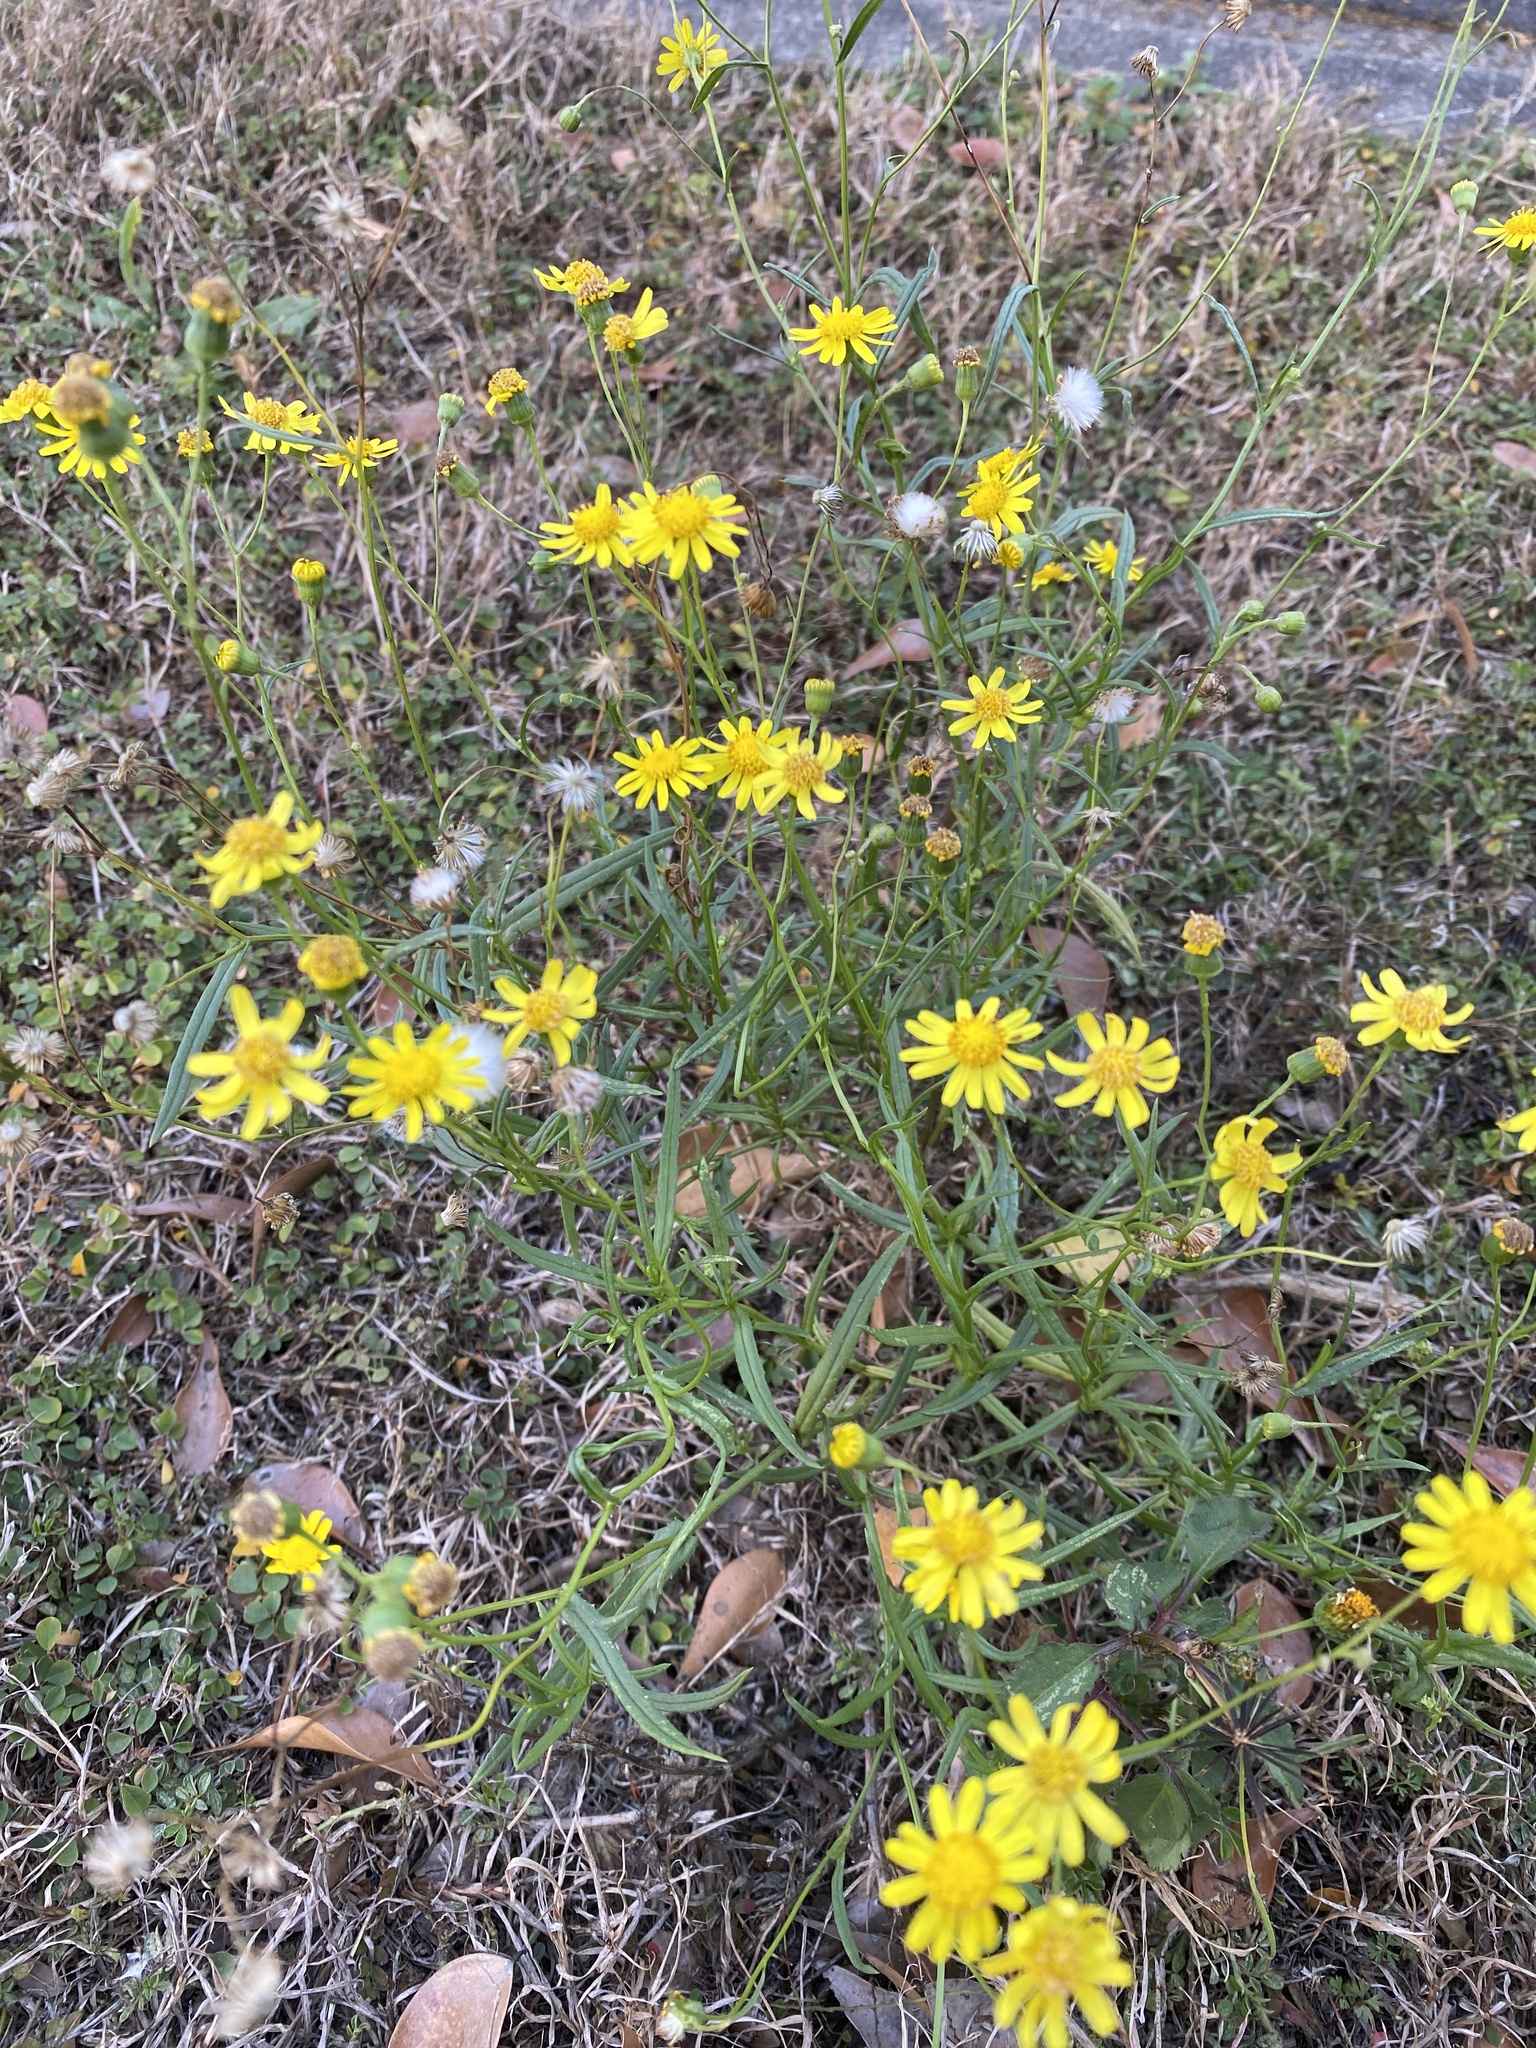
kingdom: Plantae
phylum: Tracheophyta
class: Magnoliopsida
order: Asterales
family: Asteraceae
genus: Senecio
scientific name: Senecio madagascariensis
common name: Madagascar ragwort
